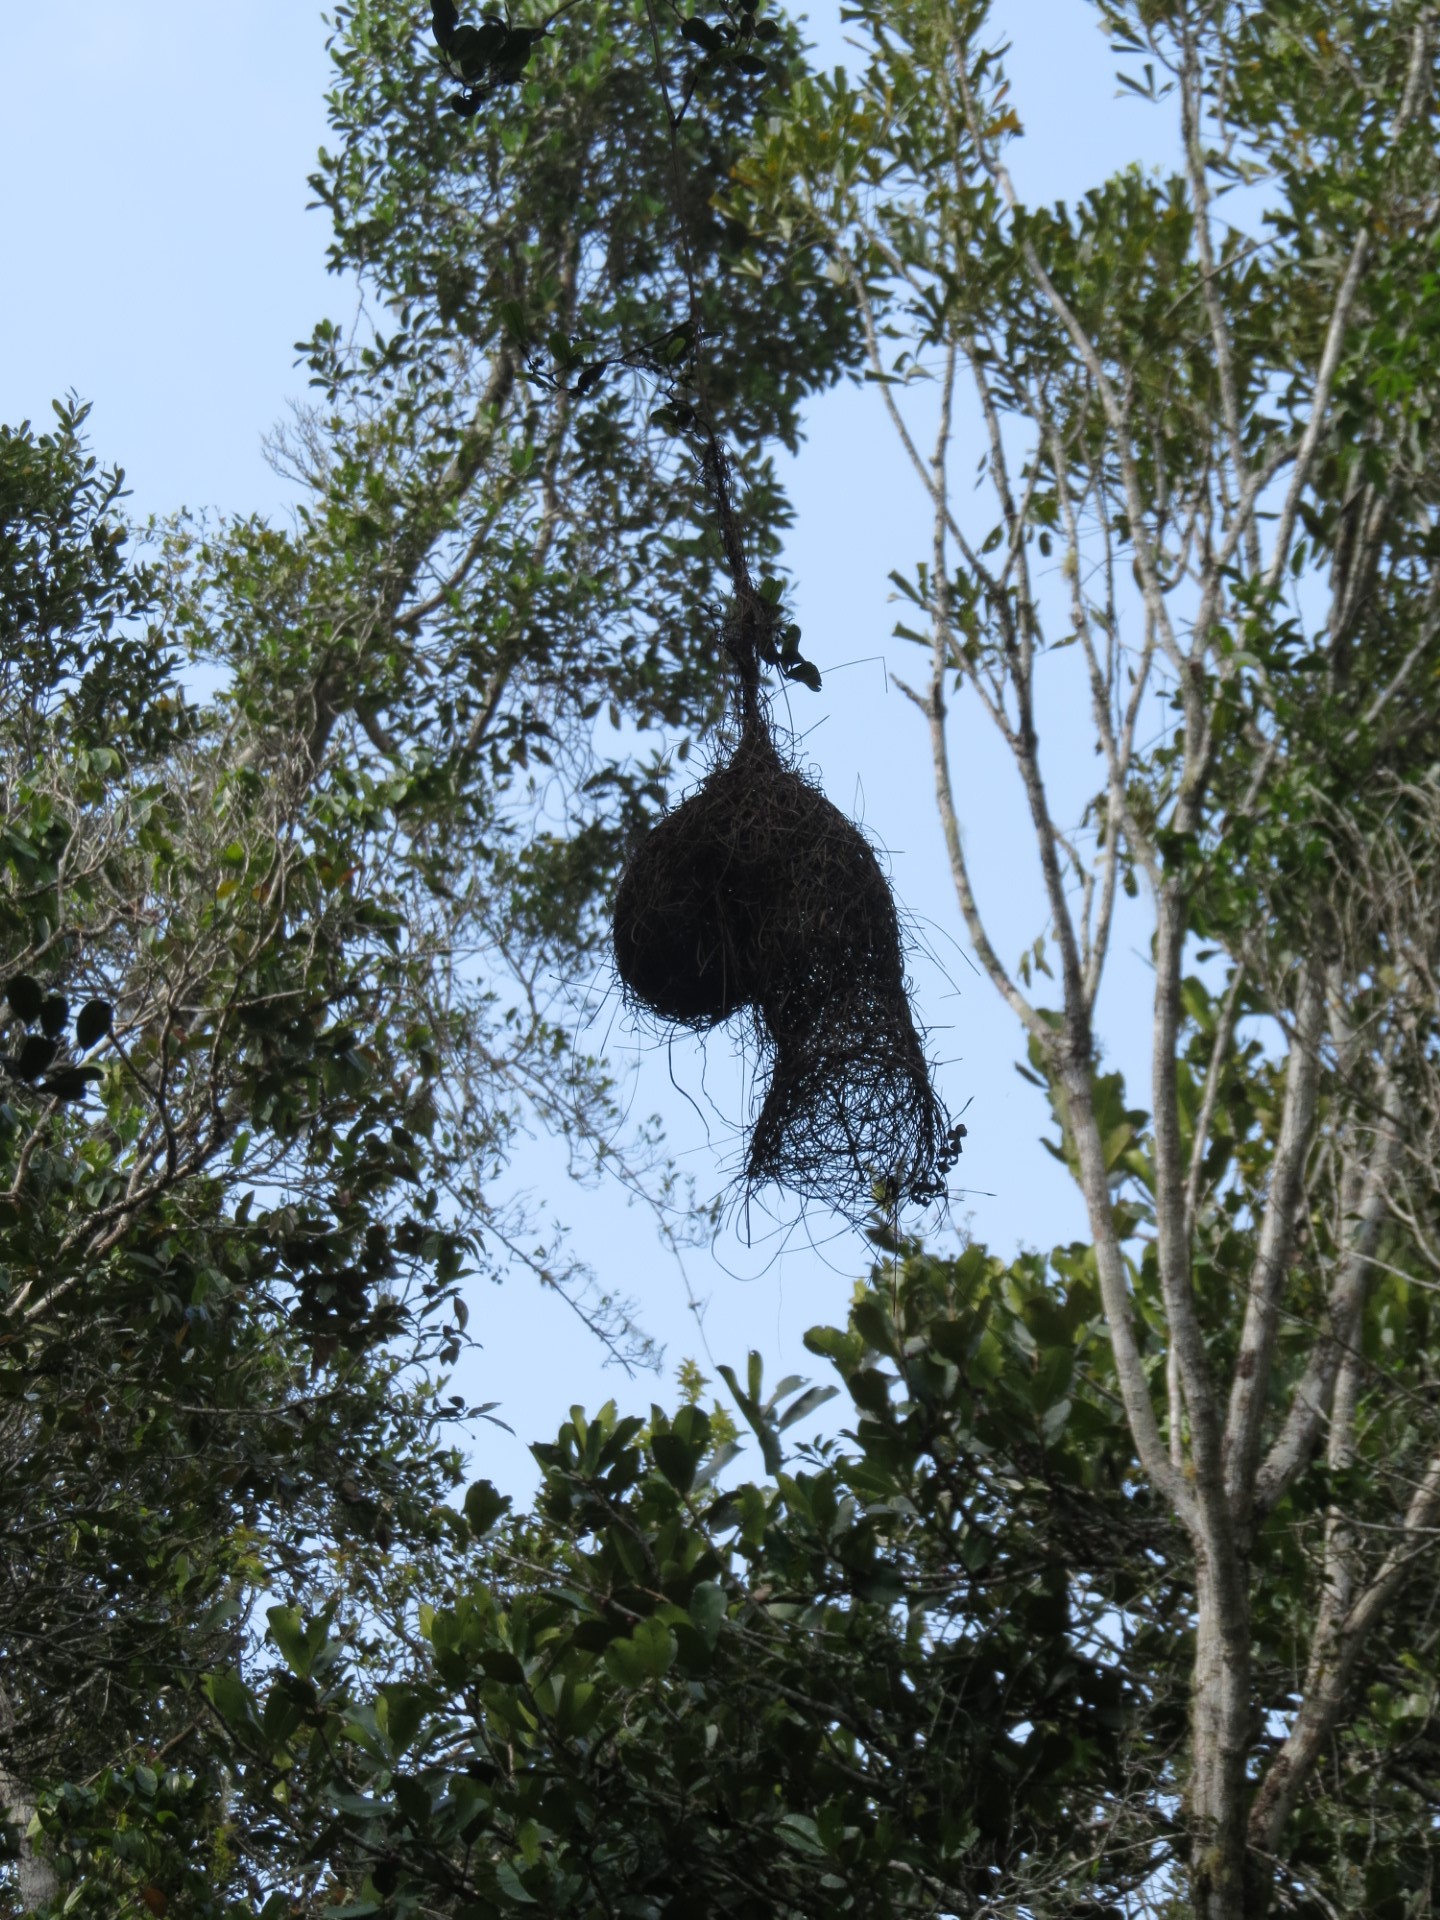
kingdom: Animalia
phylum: Chordata
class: Aves
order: Passeriformes
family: Ploceidae
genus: Ploceus
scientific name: Ploceus nelicourvi
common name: Nelicourvi weaver
